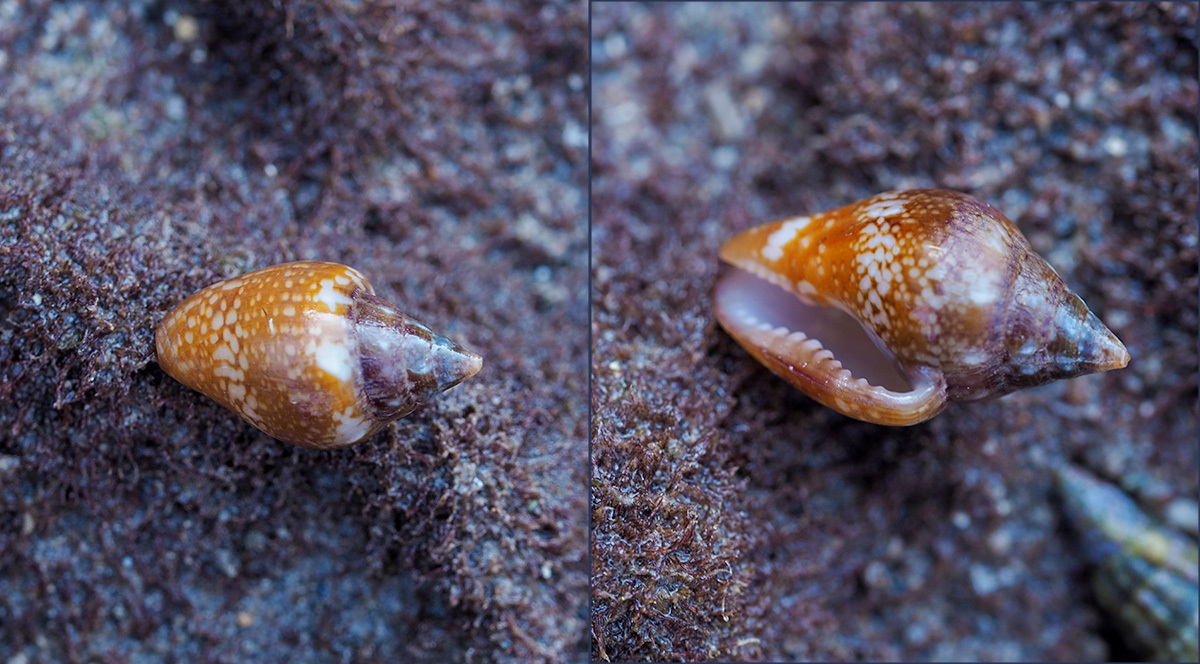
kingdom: Animalia
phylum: Mollusca
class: Gastropoda
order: Neogastropoda
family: Columbellidae
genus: Columbella
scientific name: Columbella rustica
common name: Rustic dove shell
